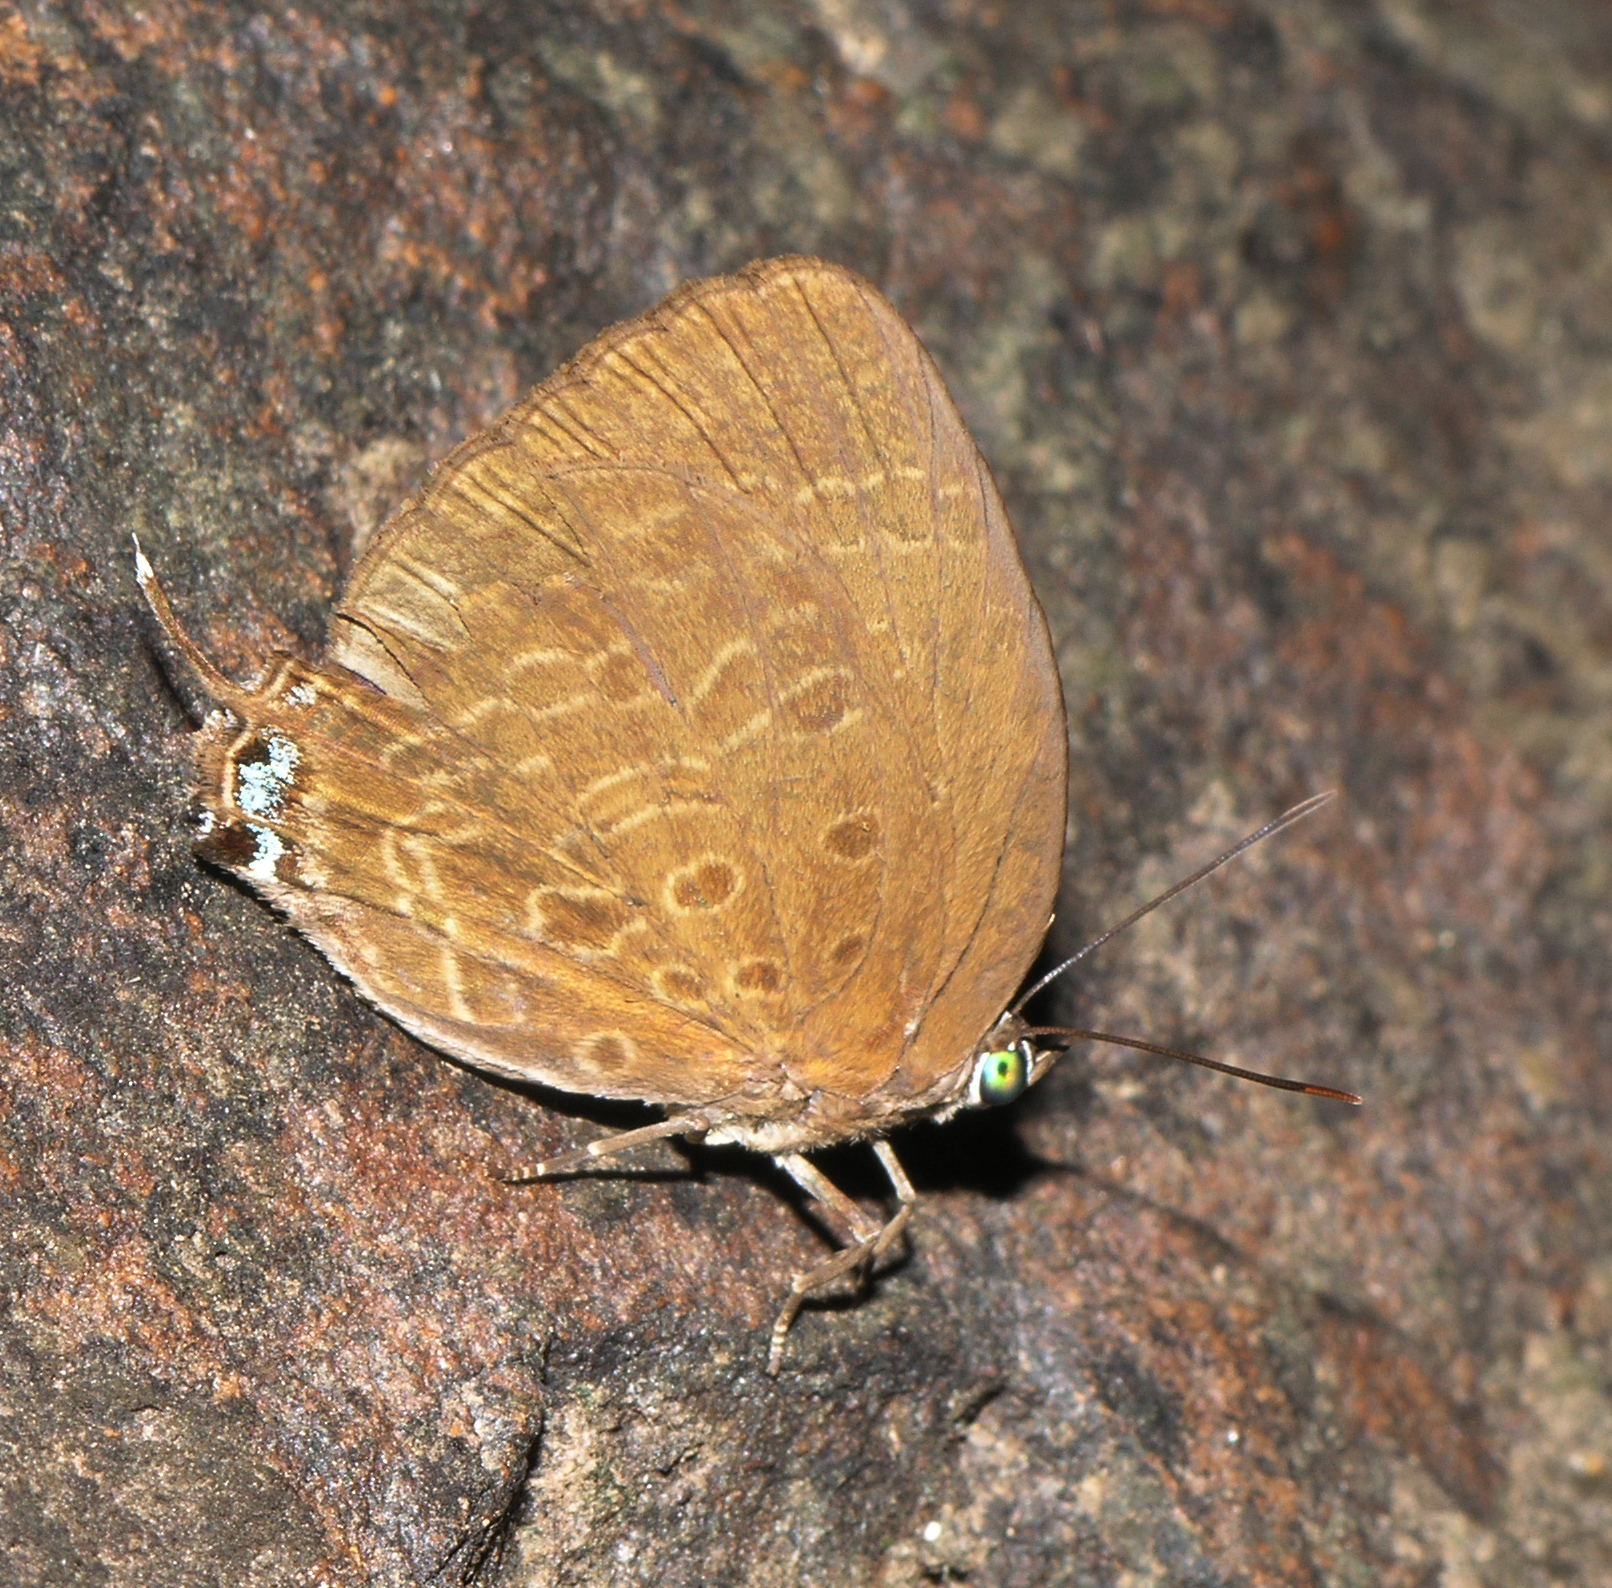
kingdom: Animalia
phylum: Arthropoda
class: Insecta
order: Lepidoptera
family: Lycaenidae
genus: Arhopala
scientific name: Arhopala atosia
